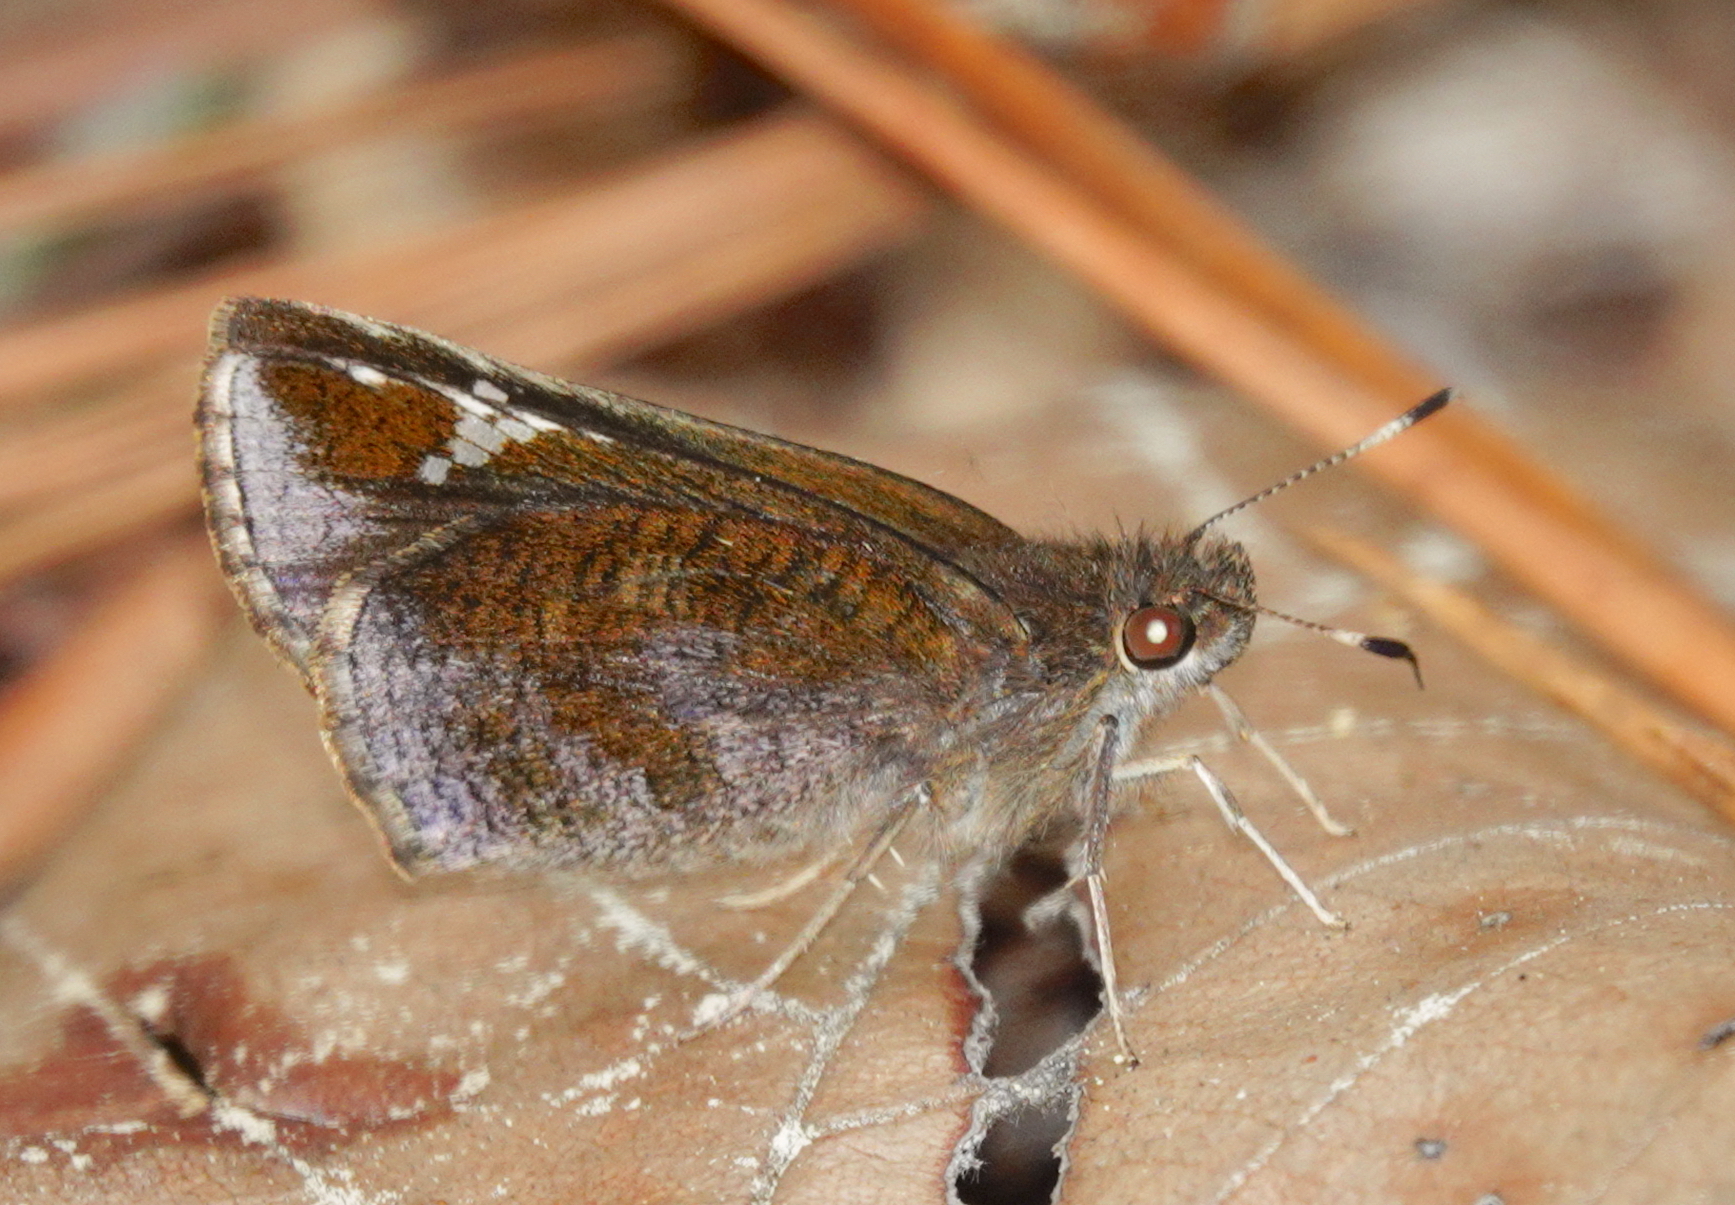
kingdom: Animalia
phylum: Arthropoda
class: Insecta
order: Lepidoptera
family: Hesperiidae
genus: Lerema
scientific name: Lerema accius
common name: Clouded skipper
